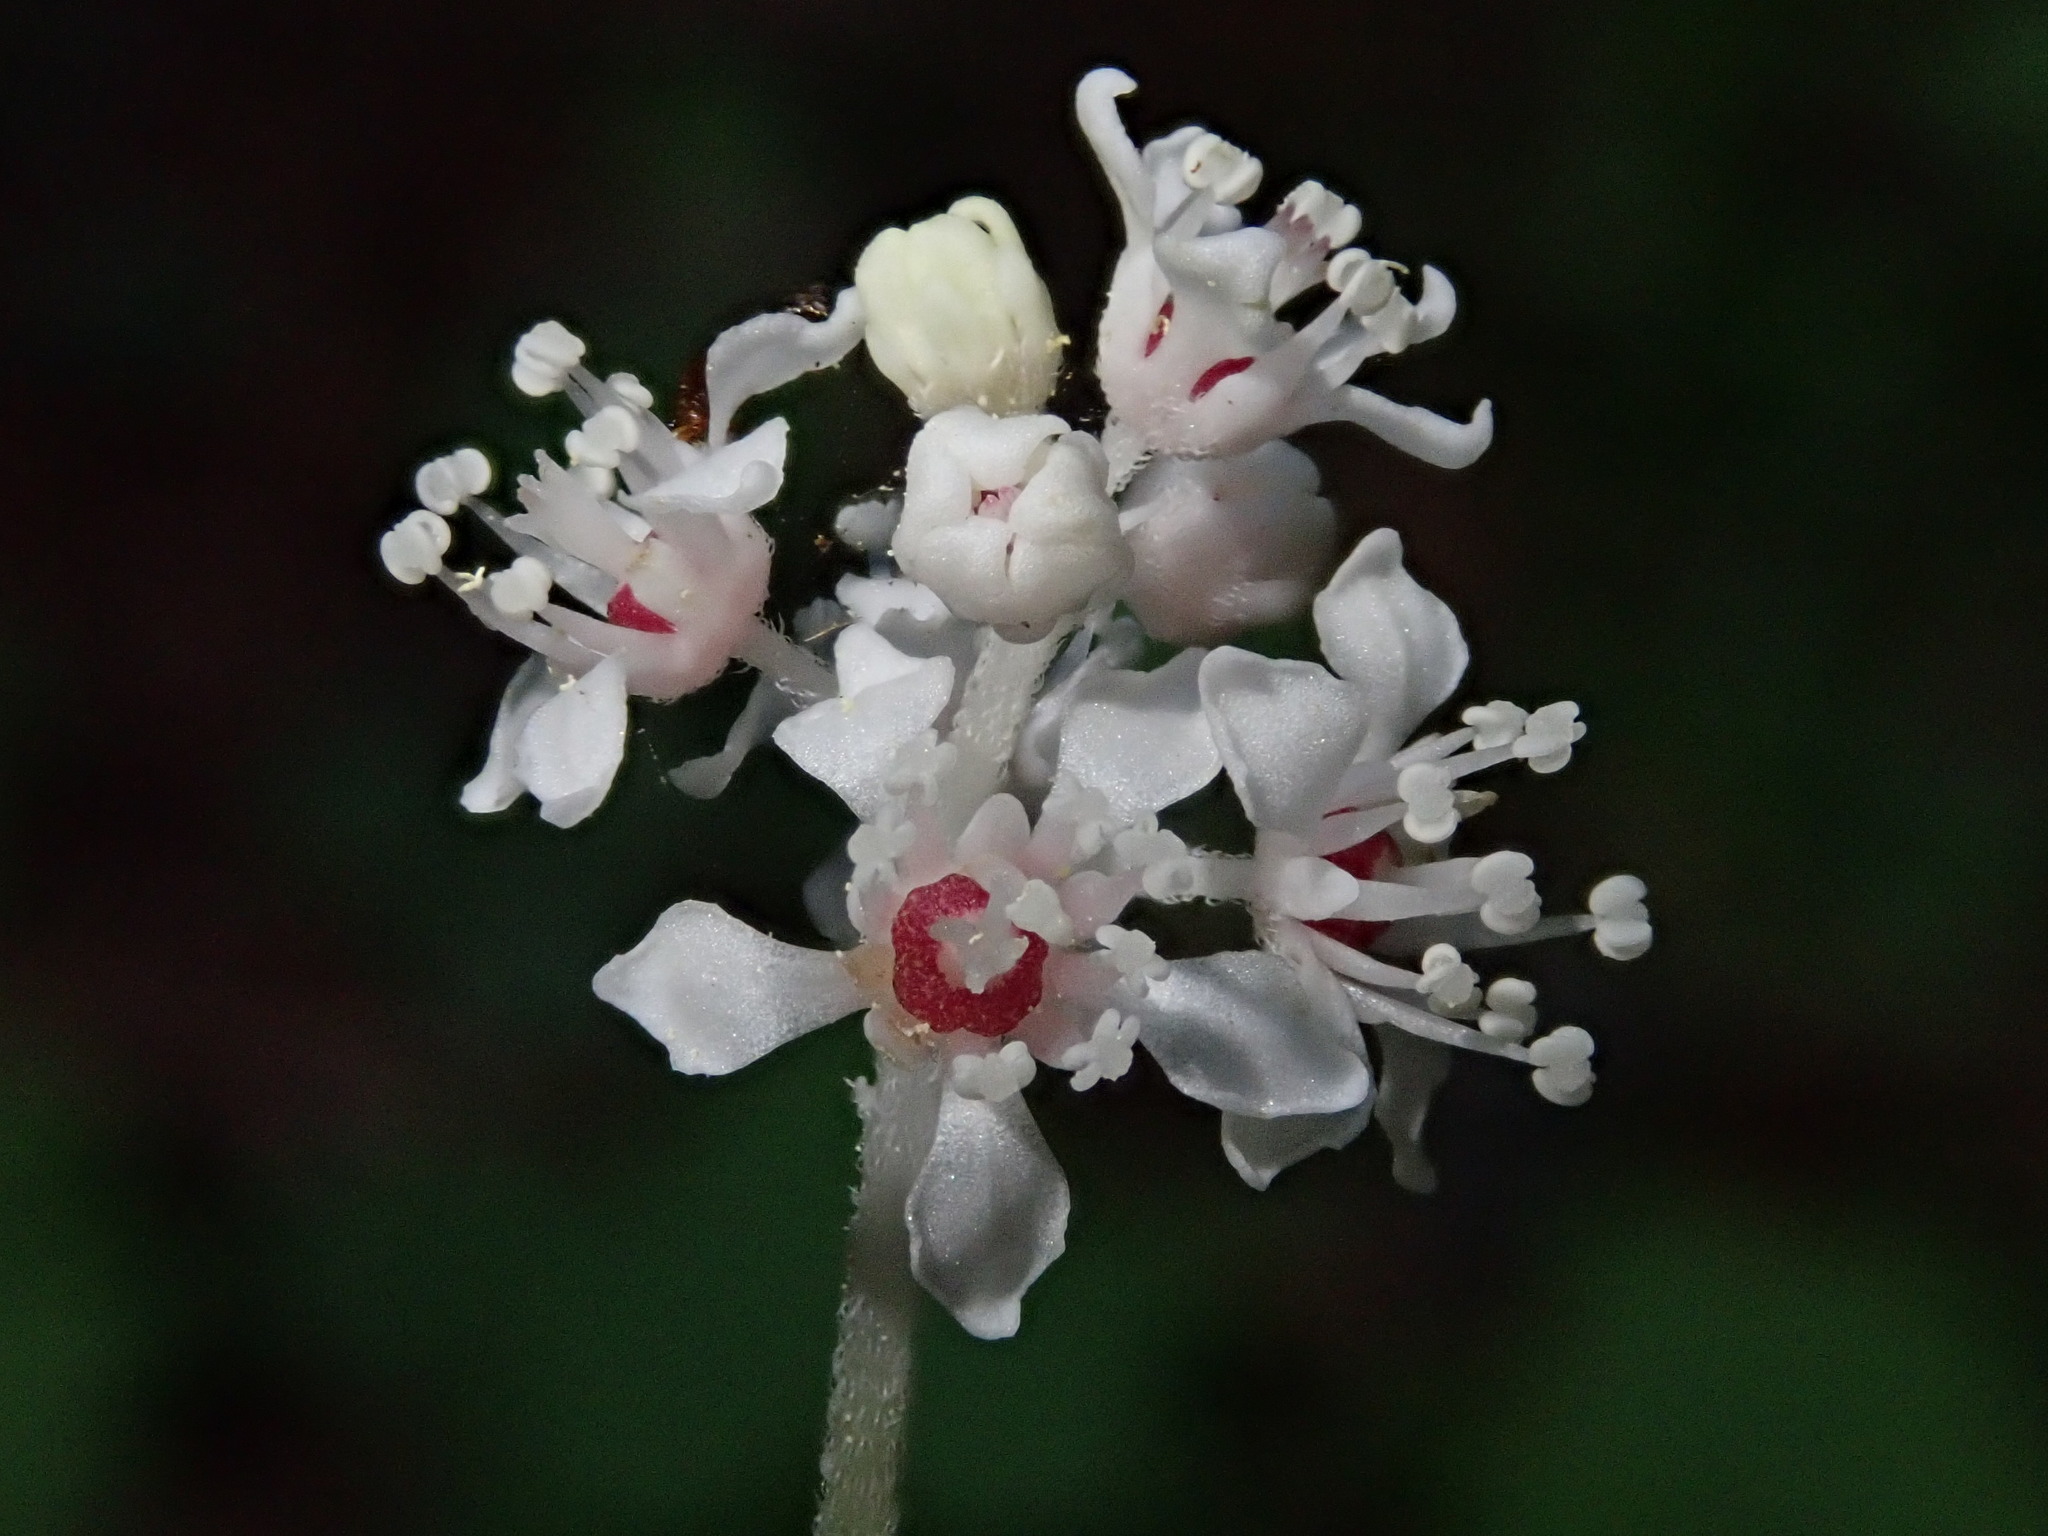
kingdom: Plantae
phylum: Tracheophyta
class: Magnoliopsida
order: Cornales
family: Hydrangeaceae
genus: Whipplea
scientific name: Whipplea modesta
